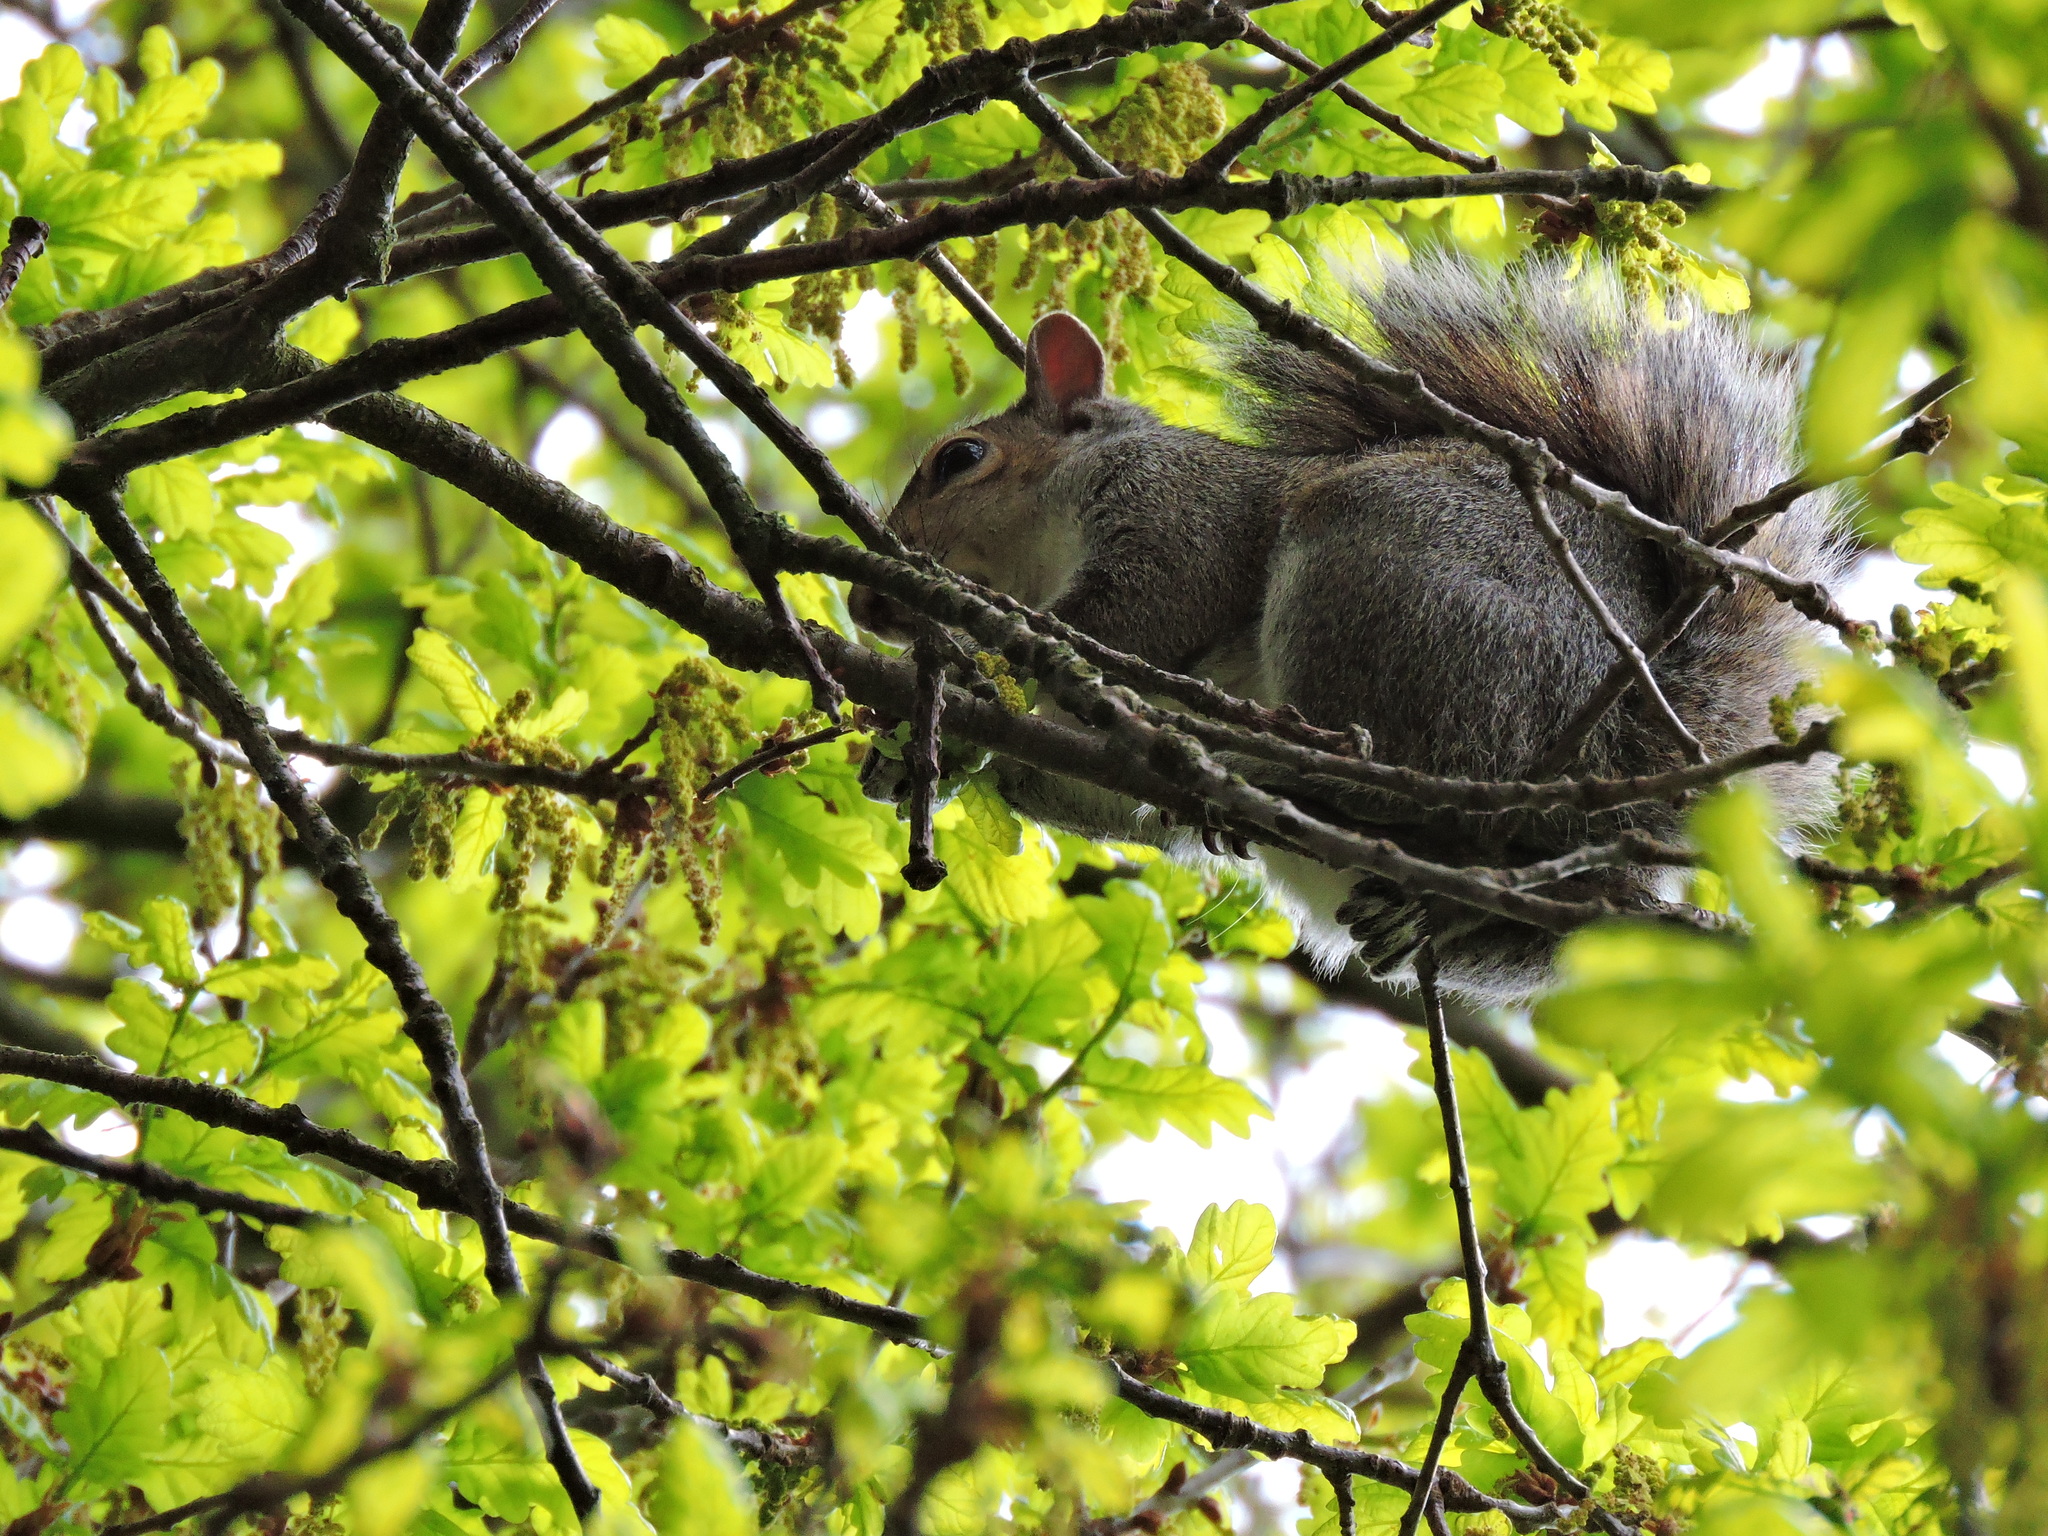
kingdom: Animalia
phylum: Chordata
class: Mammalia
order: Rodentia
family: Sciuridae
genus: Sciurus
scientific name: Sciurus carolinensis
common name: Eastern gray squirrel
